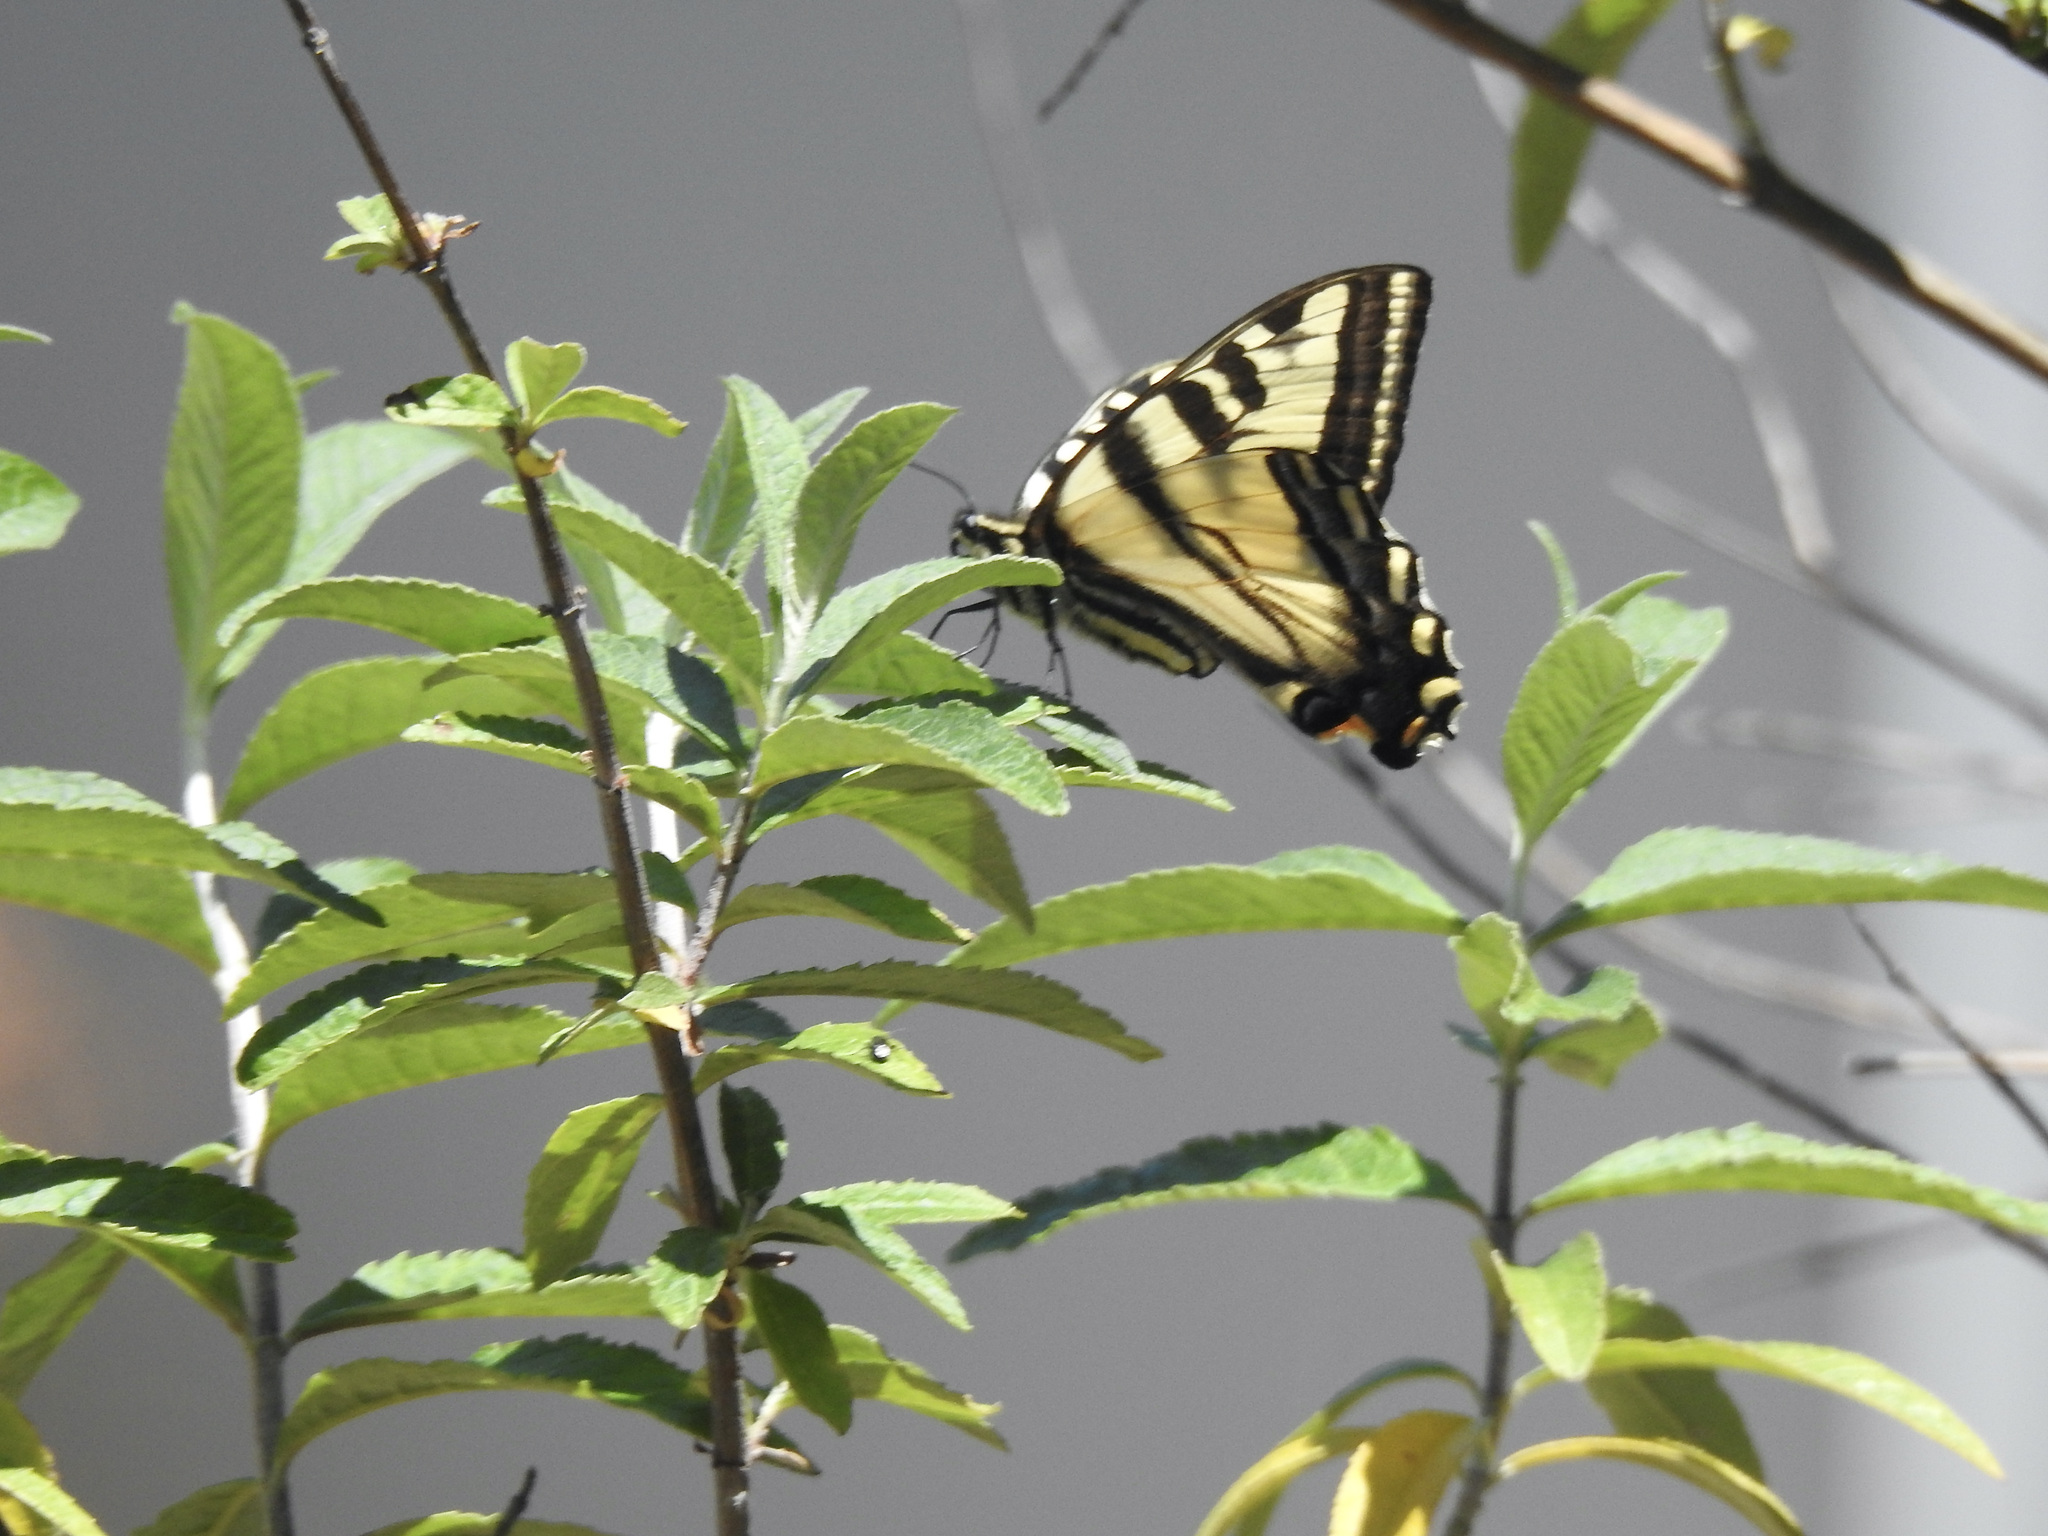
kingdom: Animalia
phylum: Arthropoda
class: Insecta
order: Lepidoptera
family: Papilionidae
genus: Papilio
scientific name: Papilio rutulus
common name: Western tiger swallowtail
